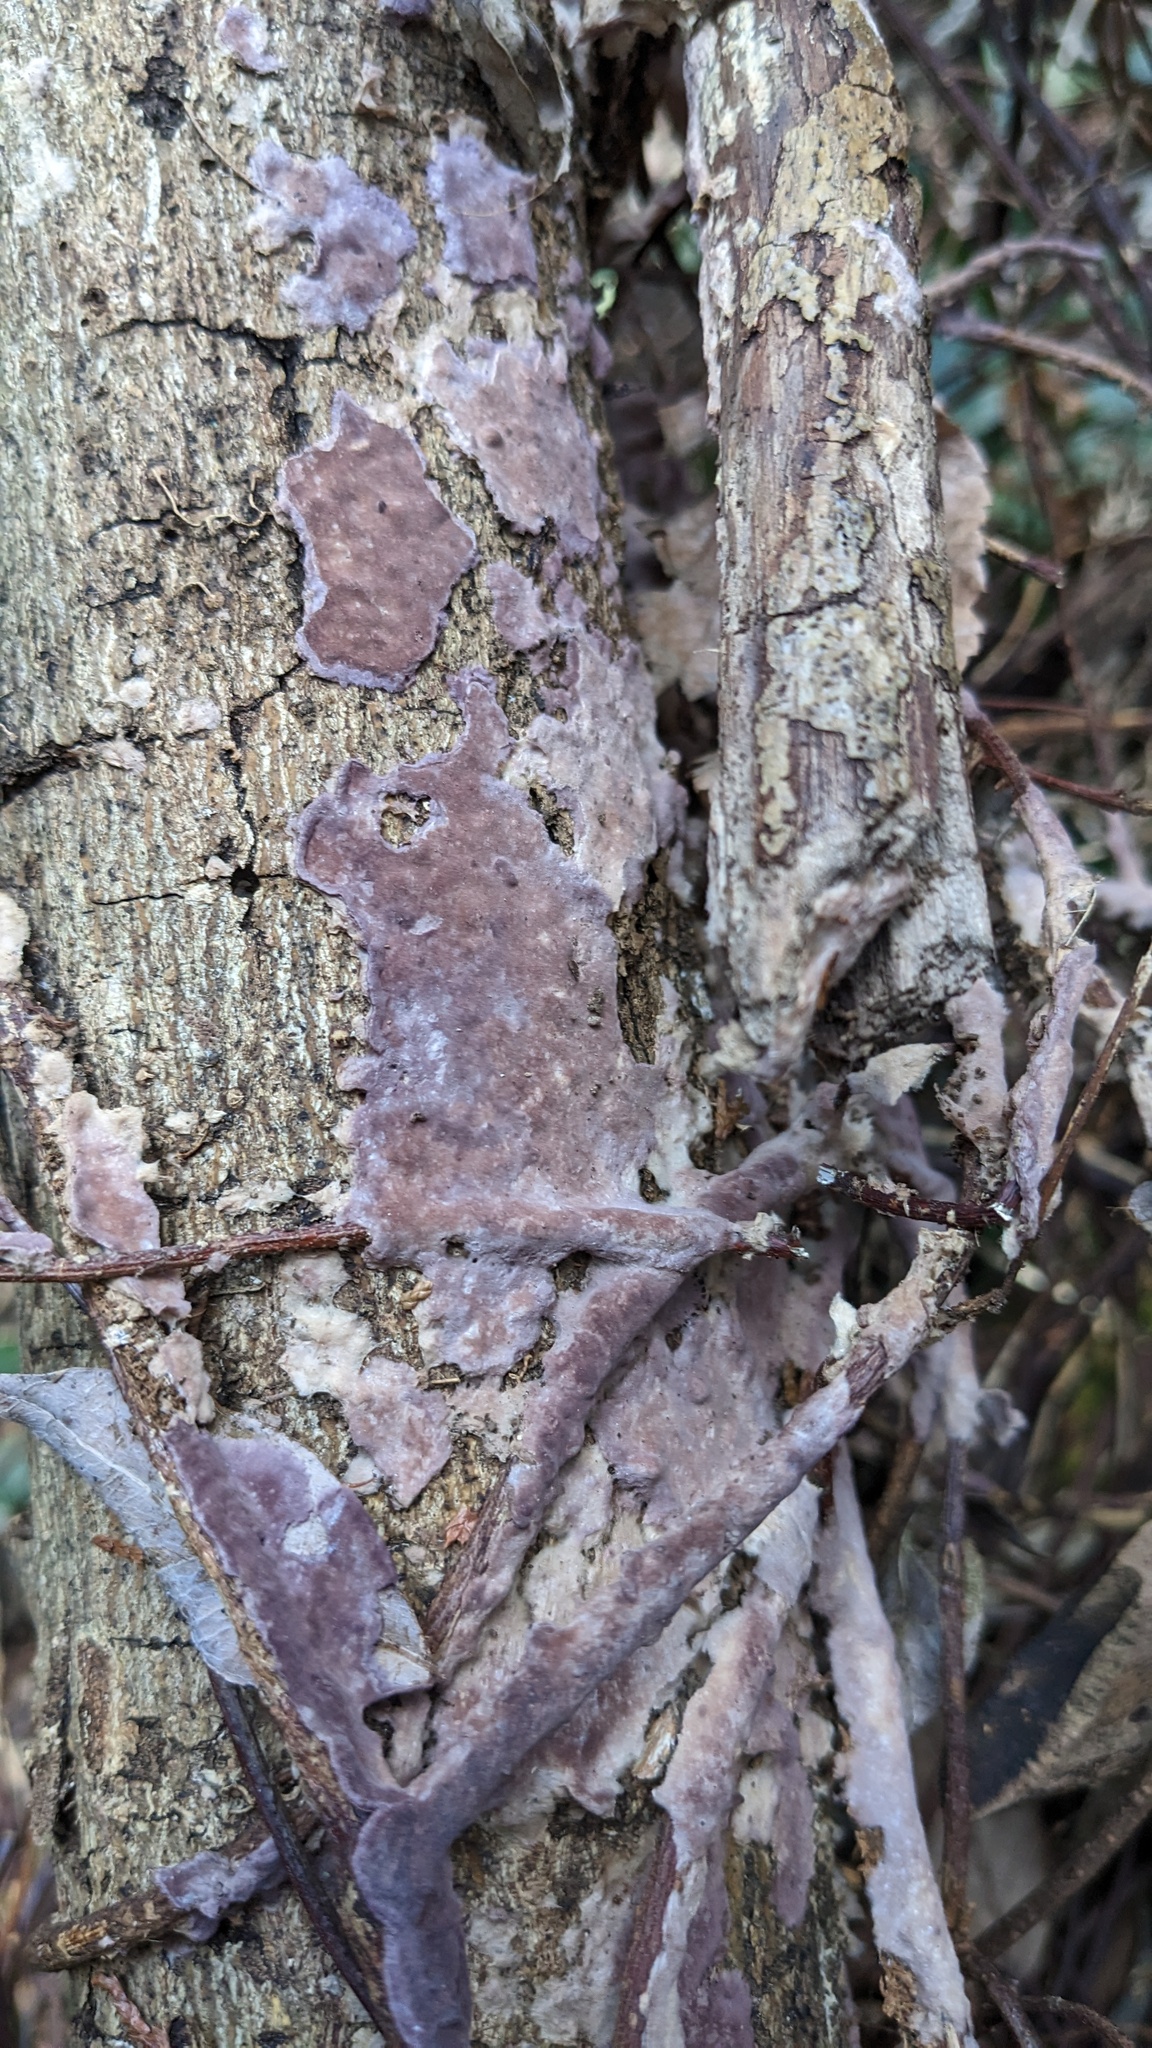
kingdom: Fungi
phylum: Basidiomycota
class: Agaricomycetes
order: Polyporales
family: Phanerochaetaceae
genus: Phlebiopsis
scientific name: Phlebiopsis crassa
